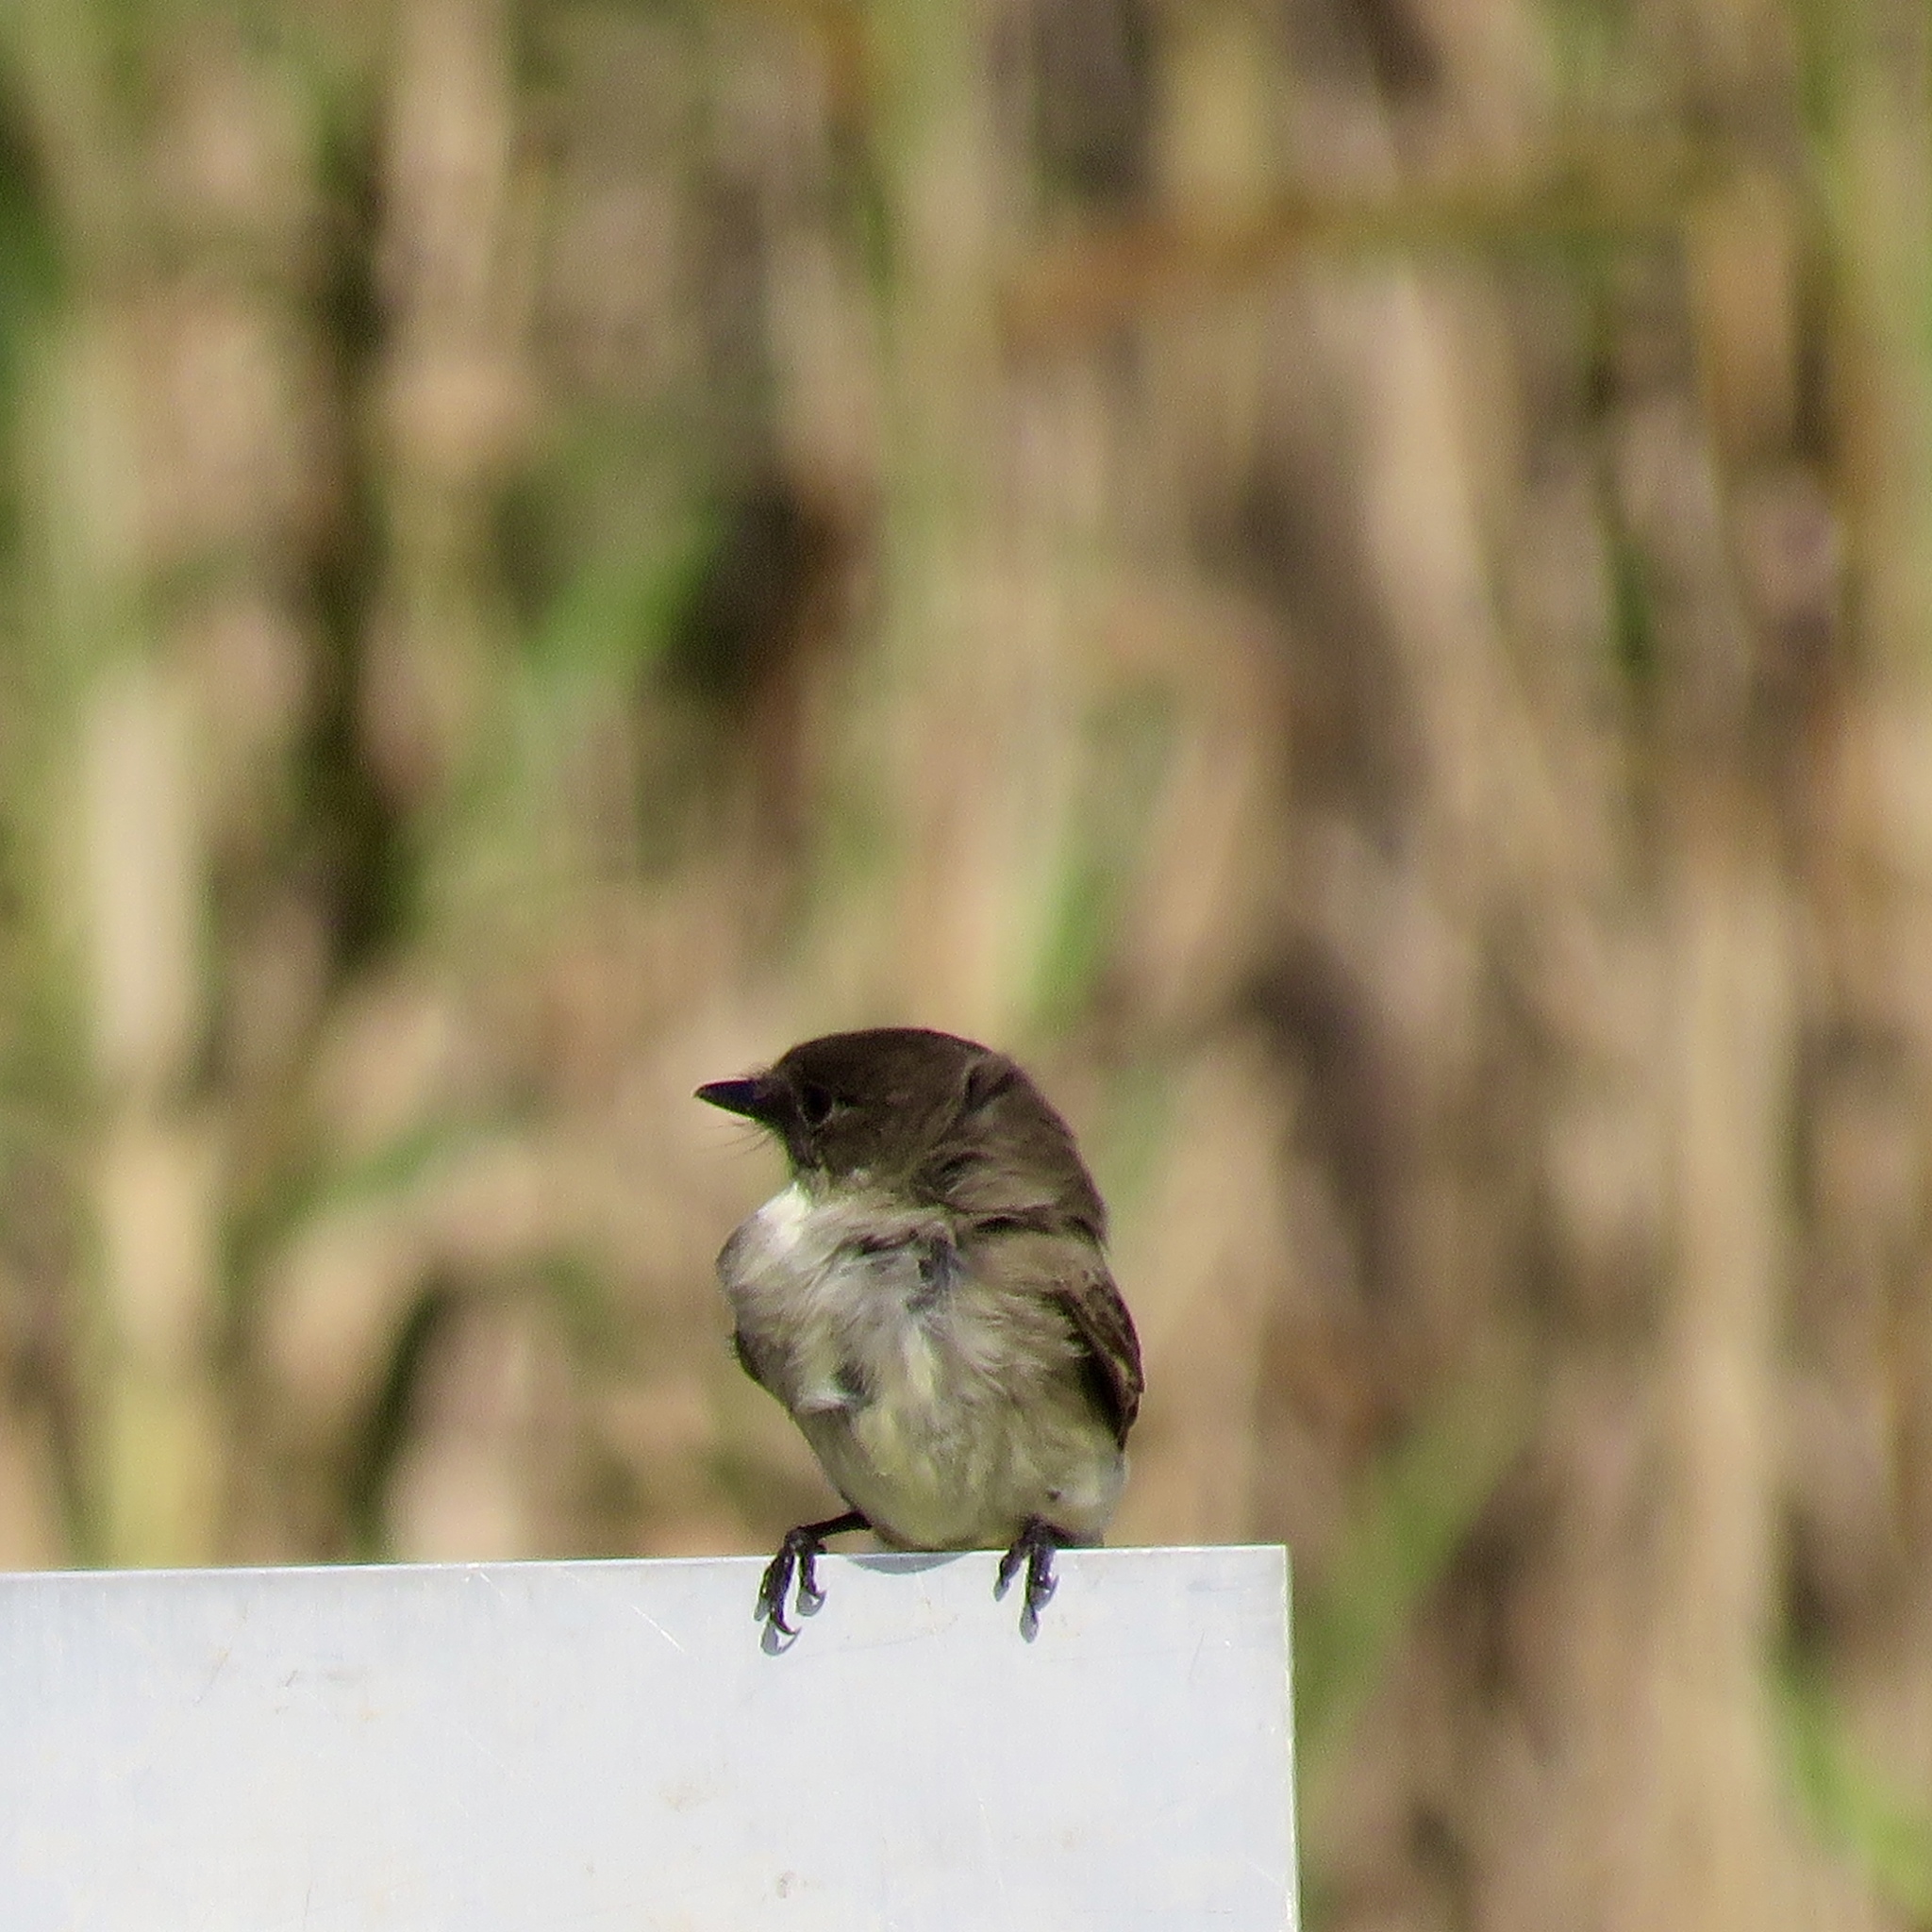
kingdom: Animalia
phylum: Chordata
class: Aves
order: Passeriformes
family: Tyrannidae
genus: Sayornis
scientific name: Sayornis phoebe
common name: Eastern phoebe
